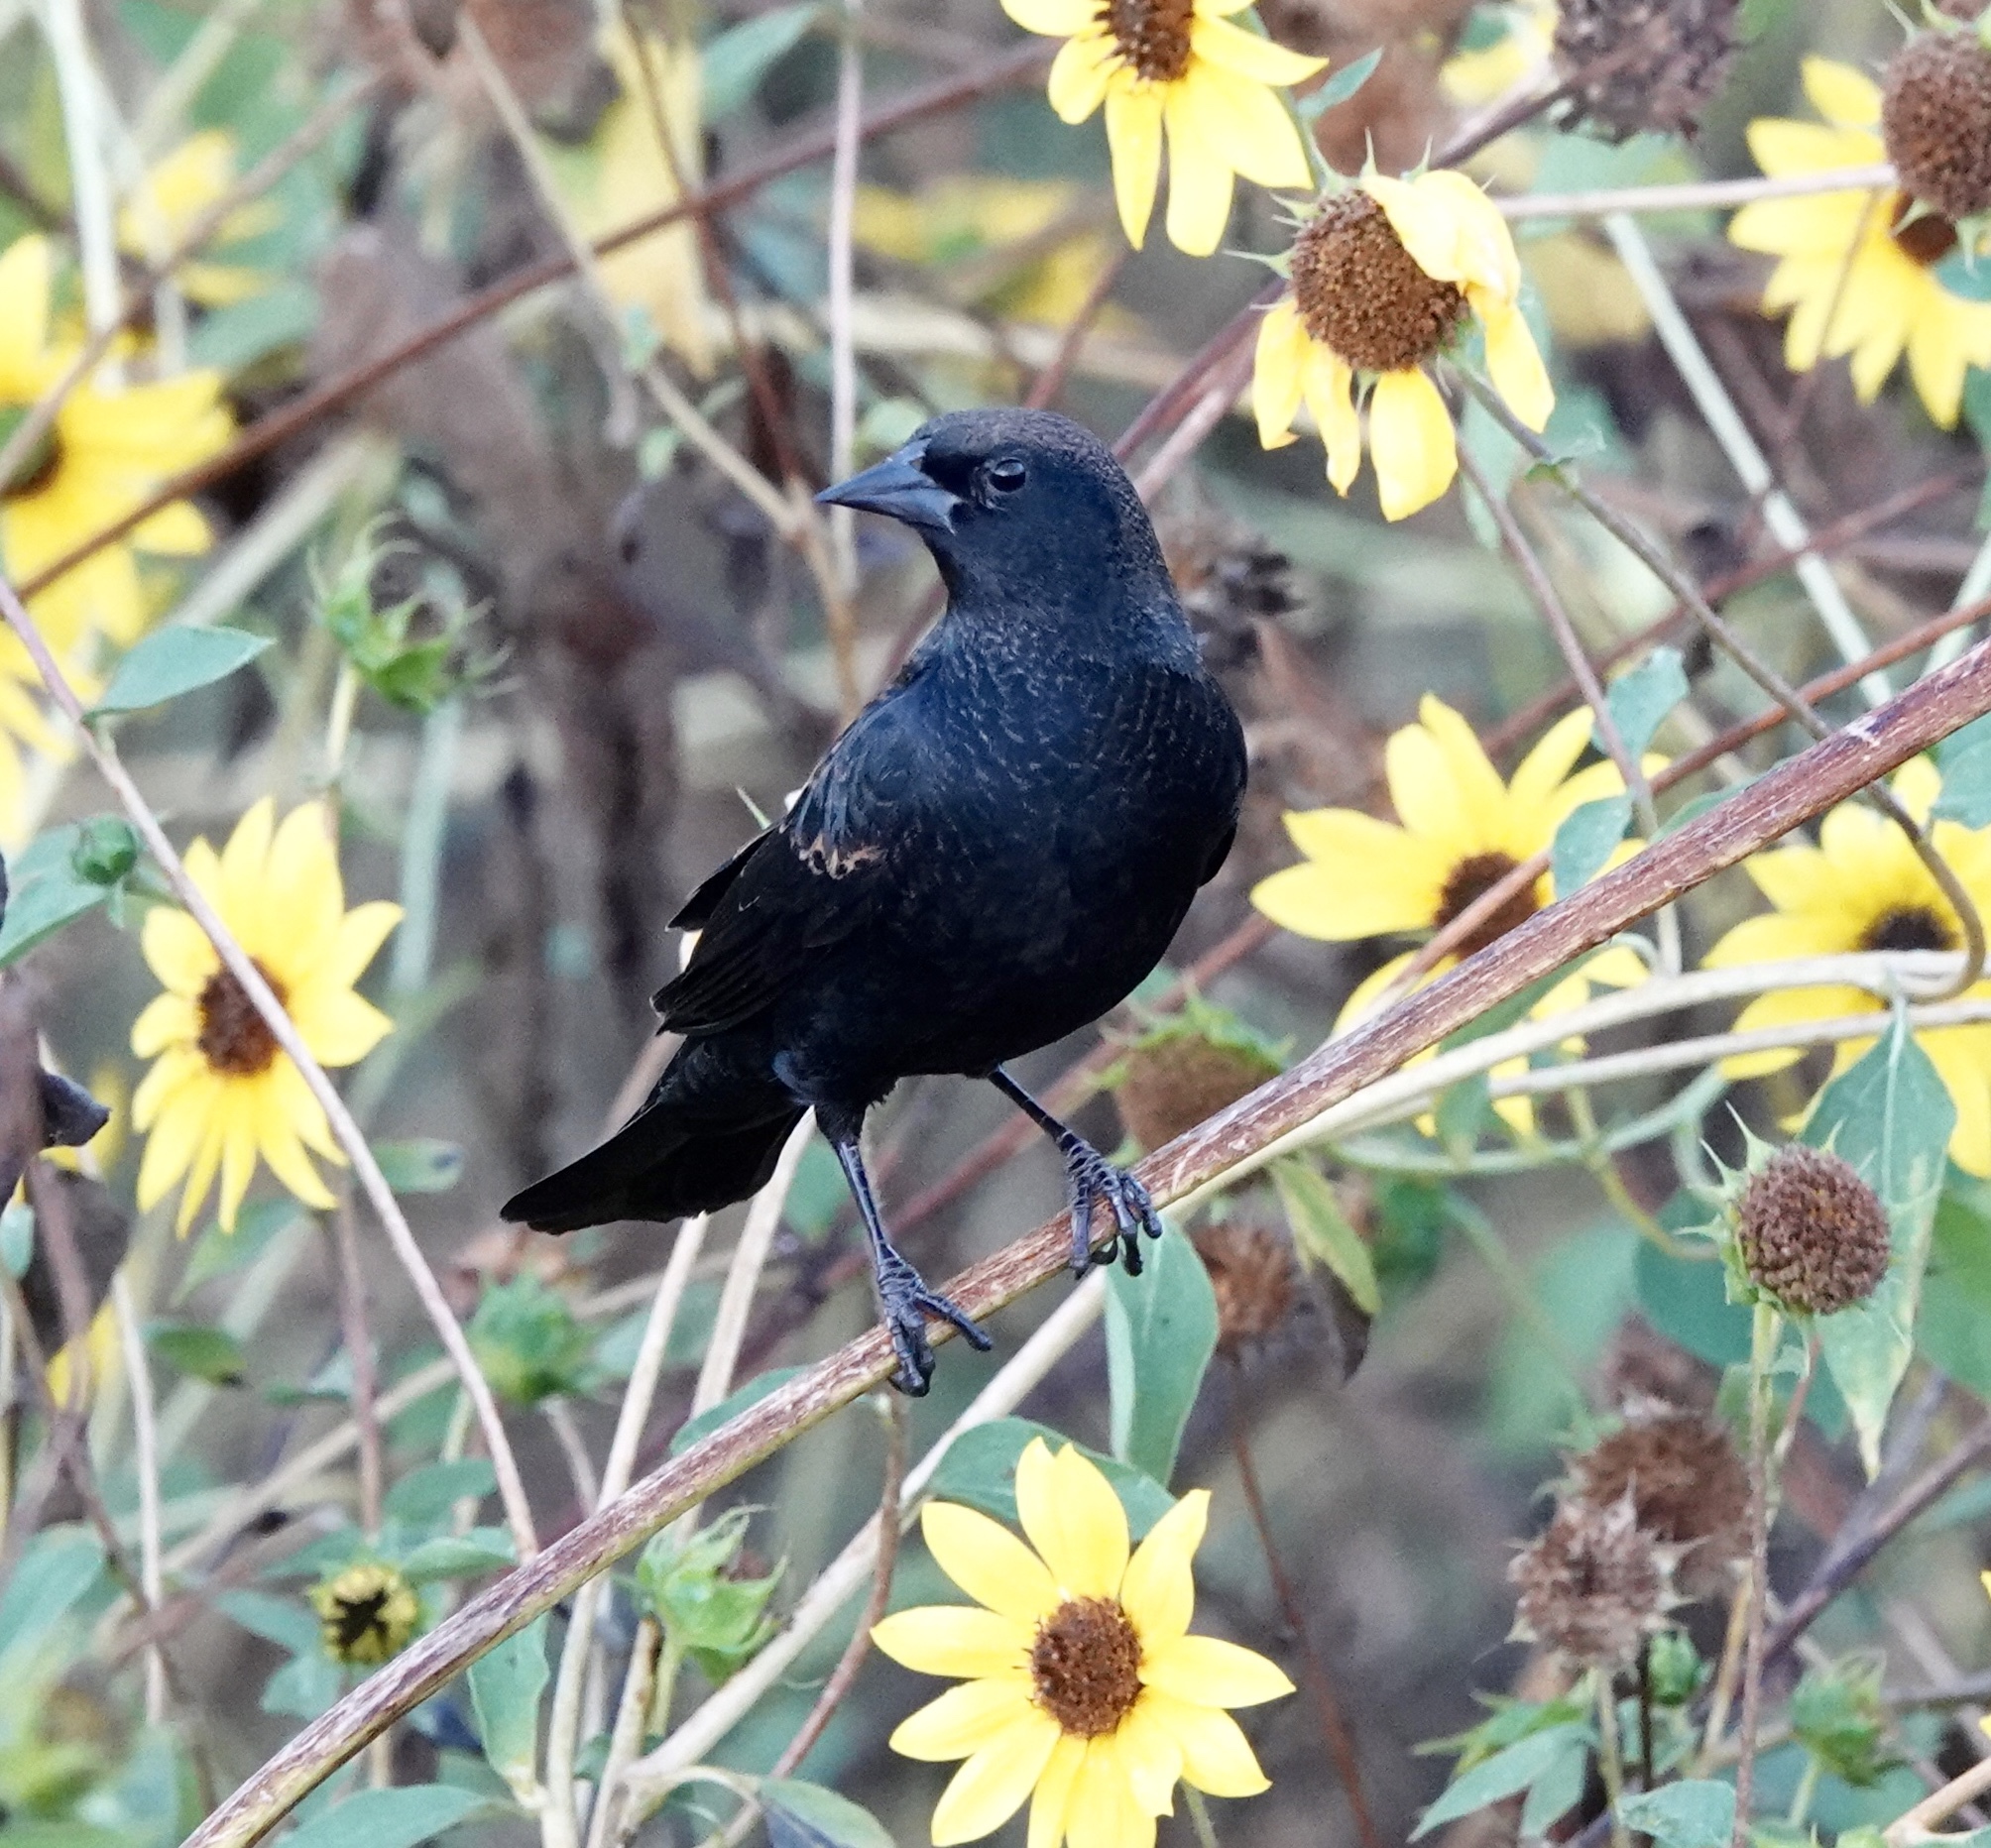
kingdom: Animalia
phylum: Chordata
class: Aves
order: Passeriformes
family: Icteridae
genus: Agelaius
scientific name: Agelaius phoeniceus
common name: Red-winged blackbird
